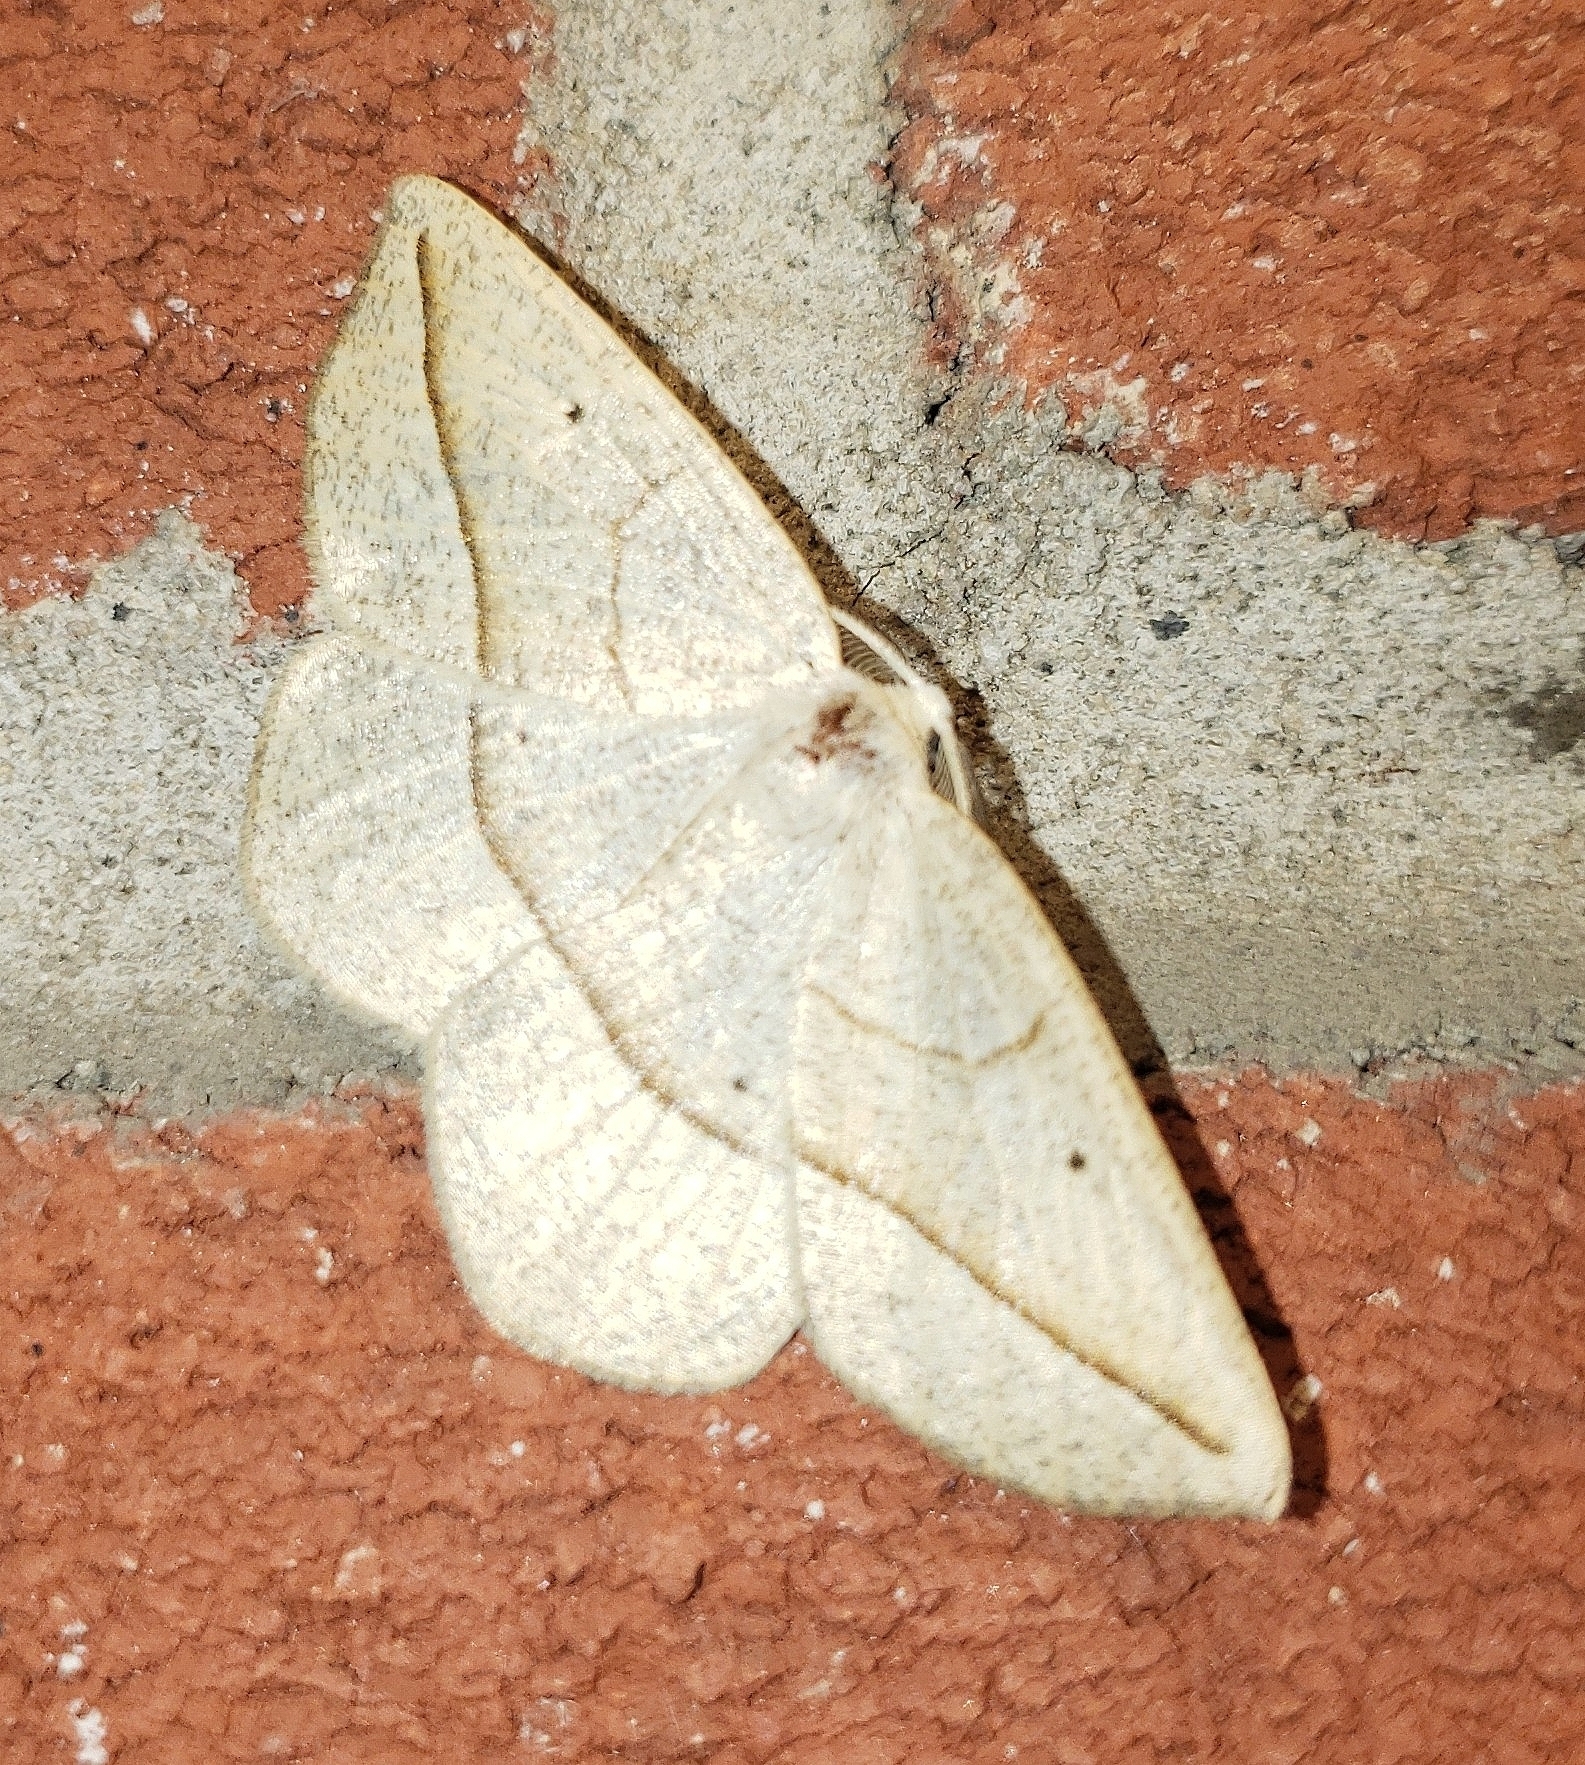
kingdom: Animalia
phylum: Arthropoda
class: Insecta
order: Lepidoptera
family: Geometridae
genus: Eusarca
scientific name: Eusarca confusaria
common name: Confused eusarca
